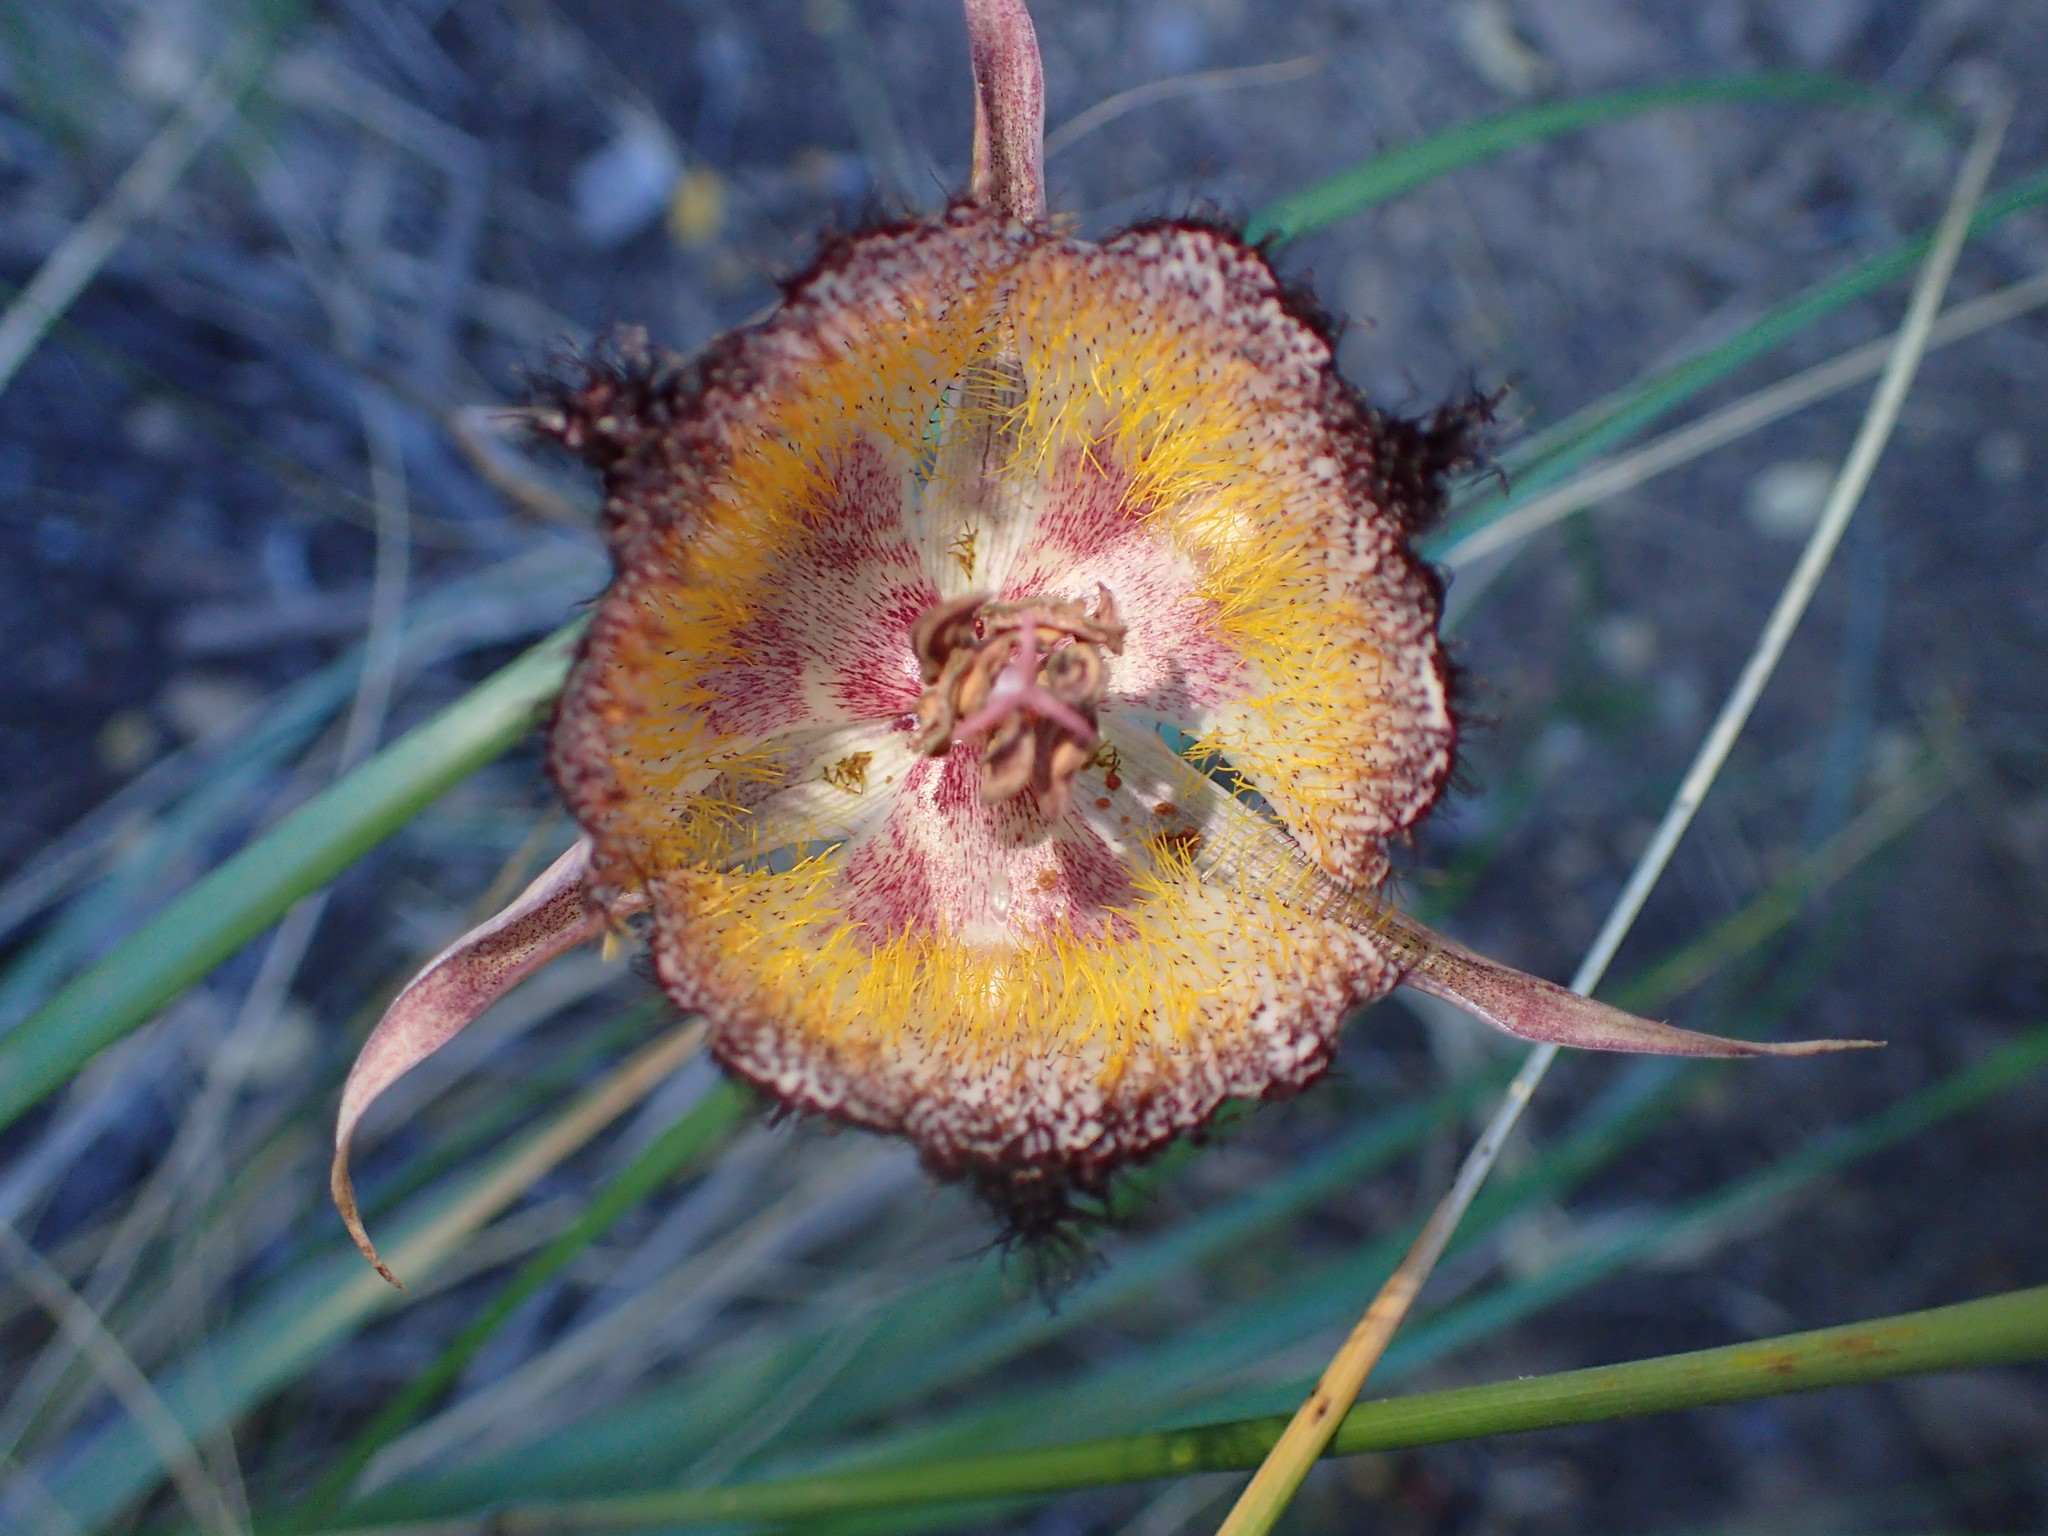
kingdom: Plantae
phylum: Tracheophyta
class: Liliopsida
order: Liliales
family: Liliaceae
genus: Calochortus
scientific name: Calochortus fimbriatus
